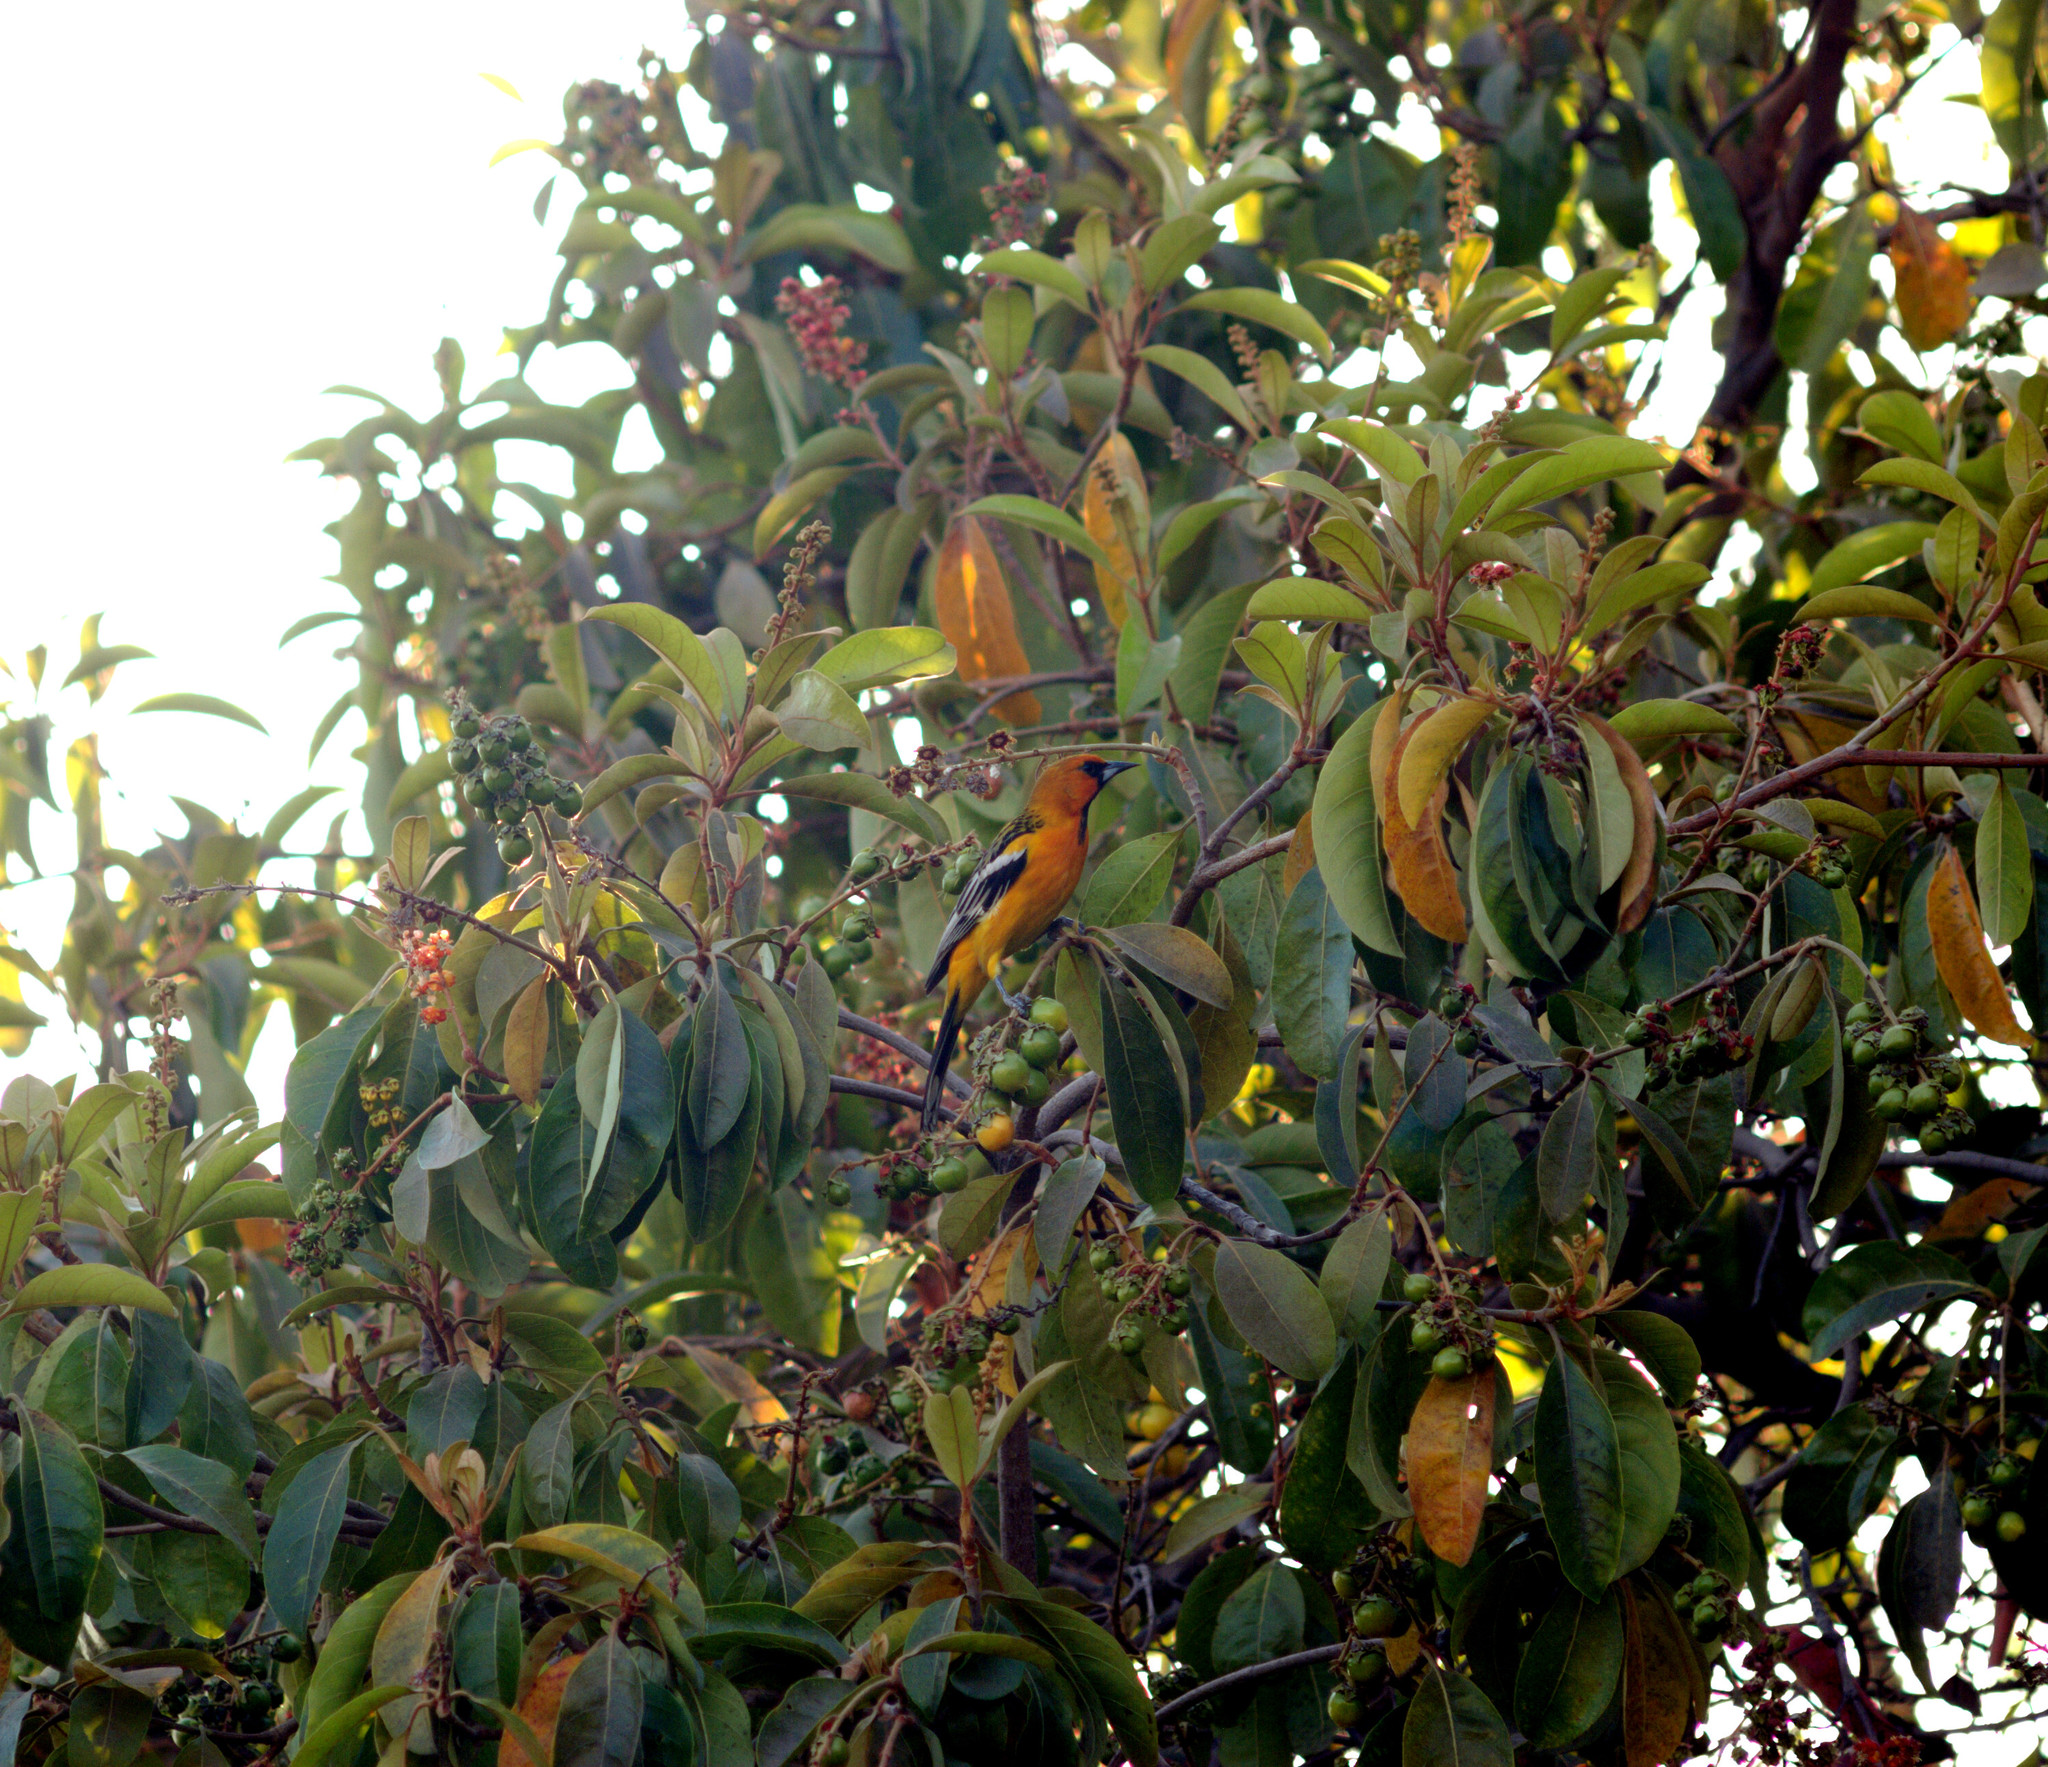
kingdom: Animalia
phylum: Chordata
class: Aves
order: Passeriformes
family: Icteridae
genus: Icterus
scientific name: Icterus pustulatus
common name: Streak-backed oriole
